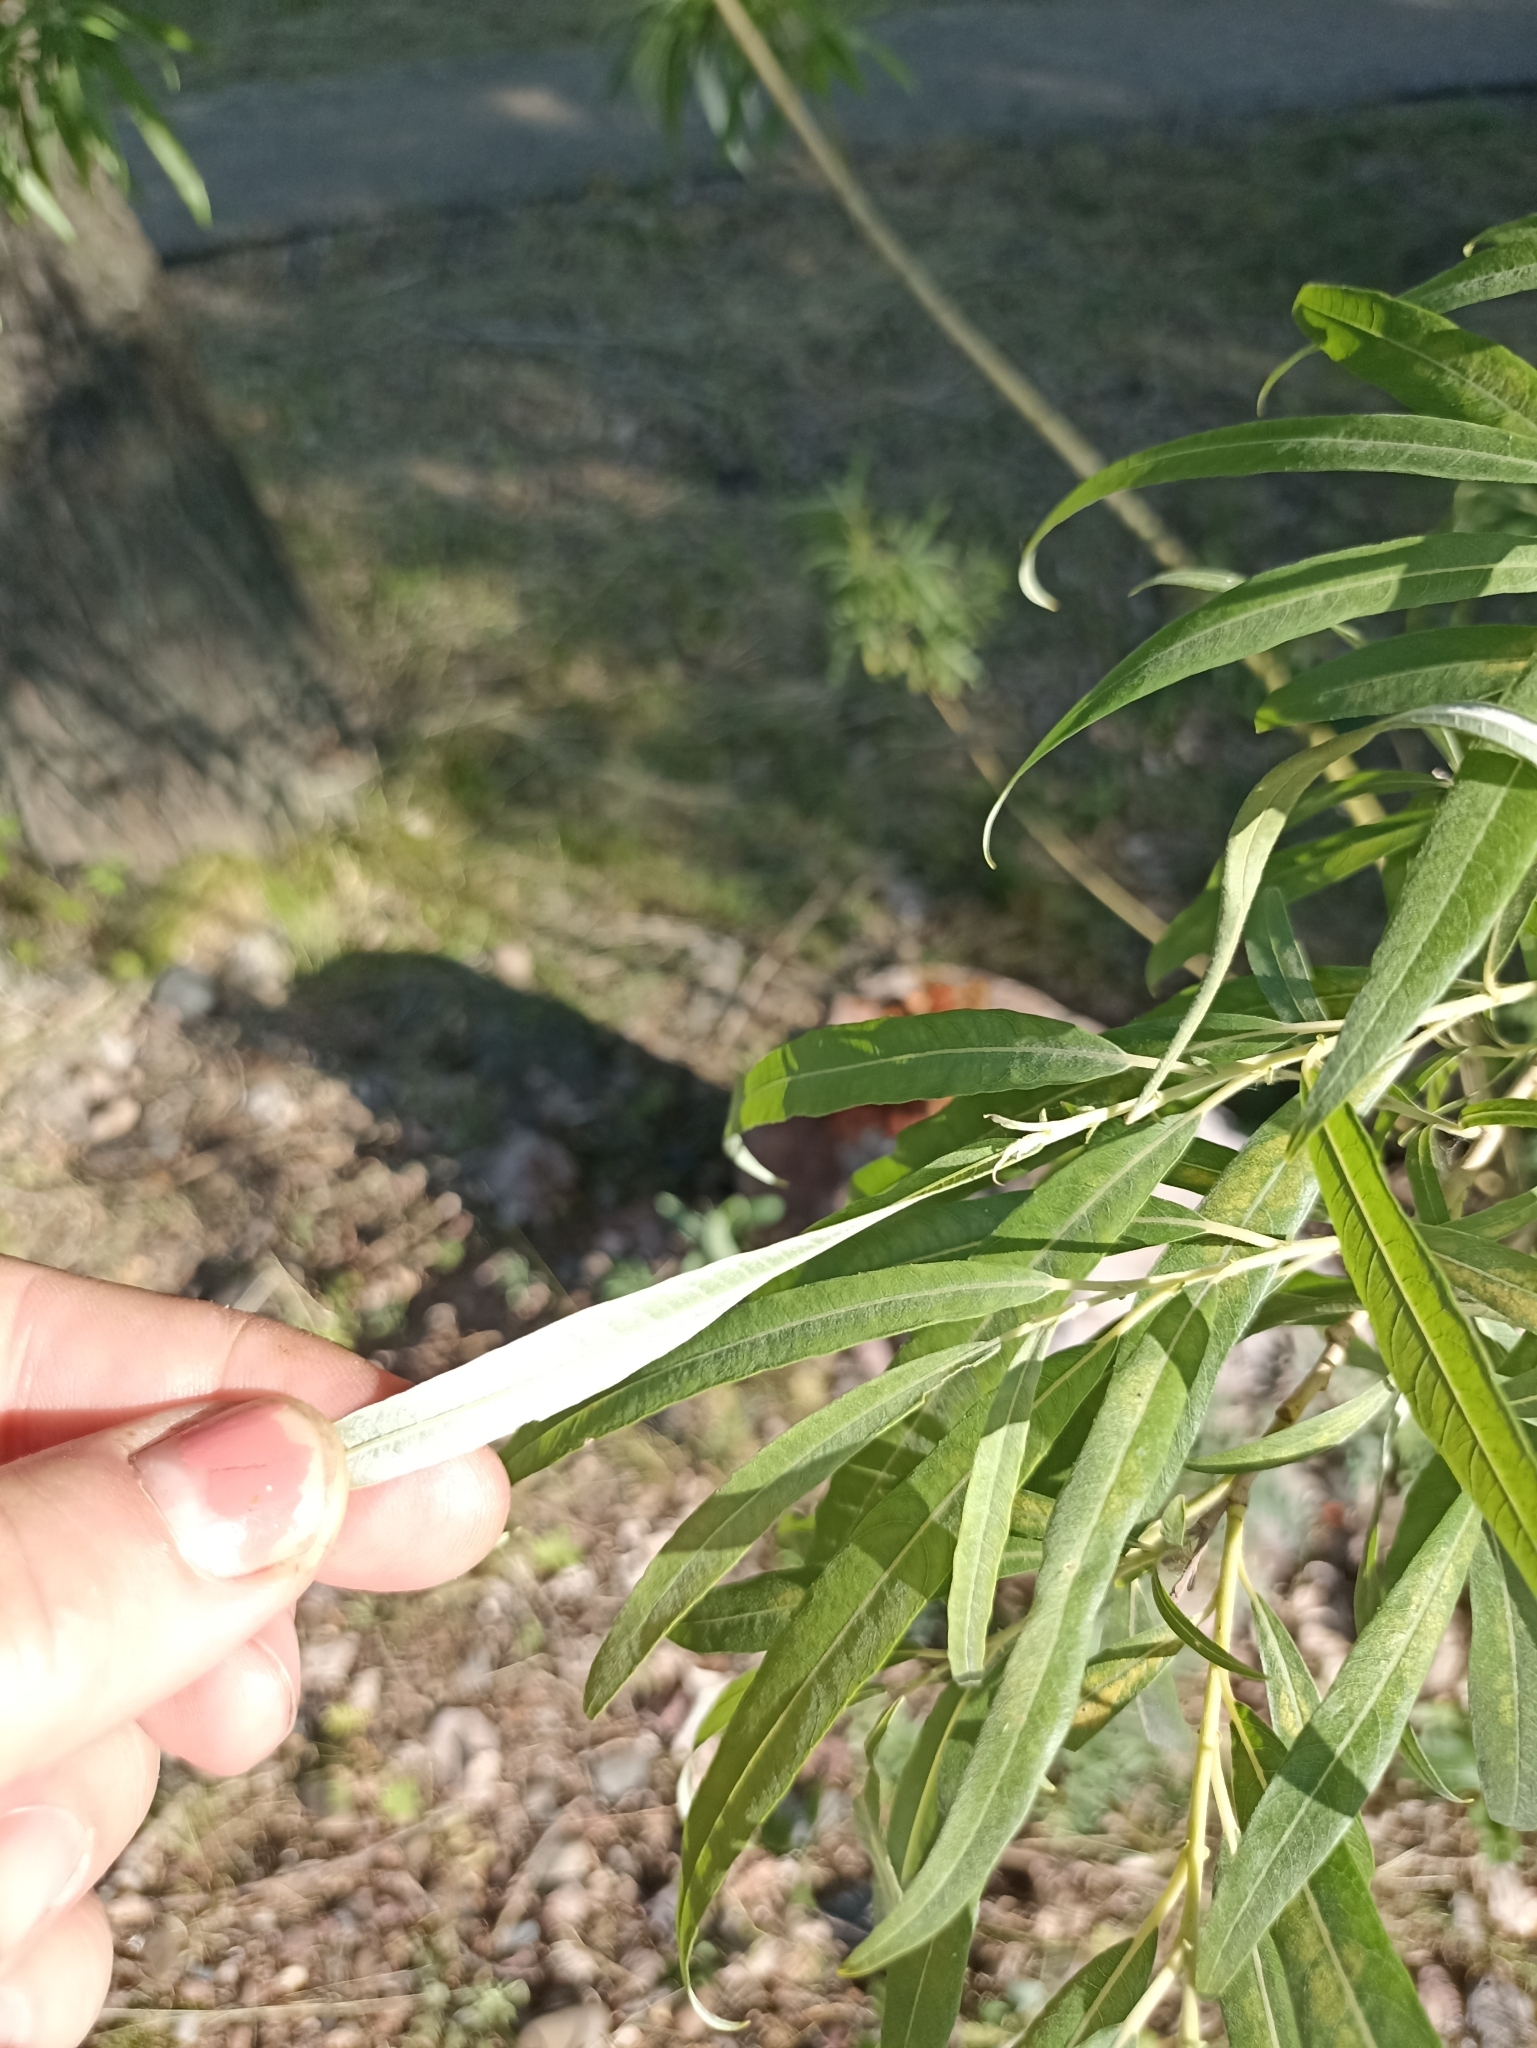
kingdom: Plantae
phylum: Tracheophyta
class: Magnoliopsida
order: Malpighiales
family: Salicaceae
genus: Salix
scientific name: Salix viminalis
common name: Osier
